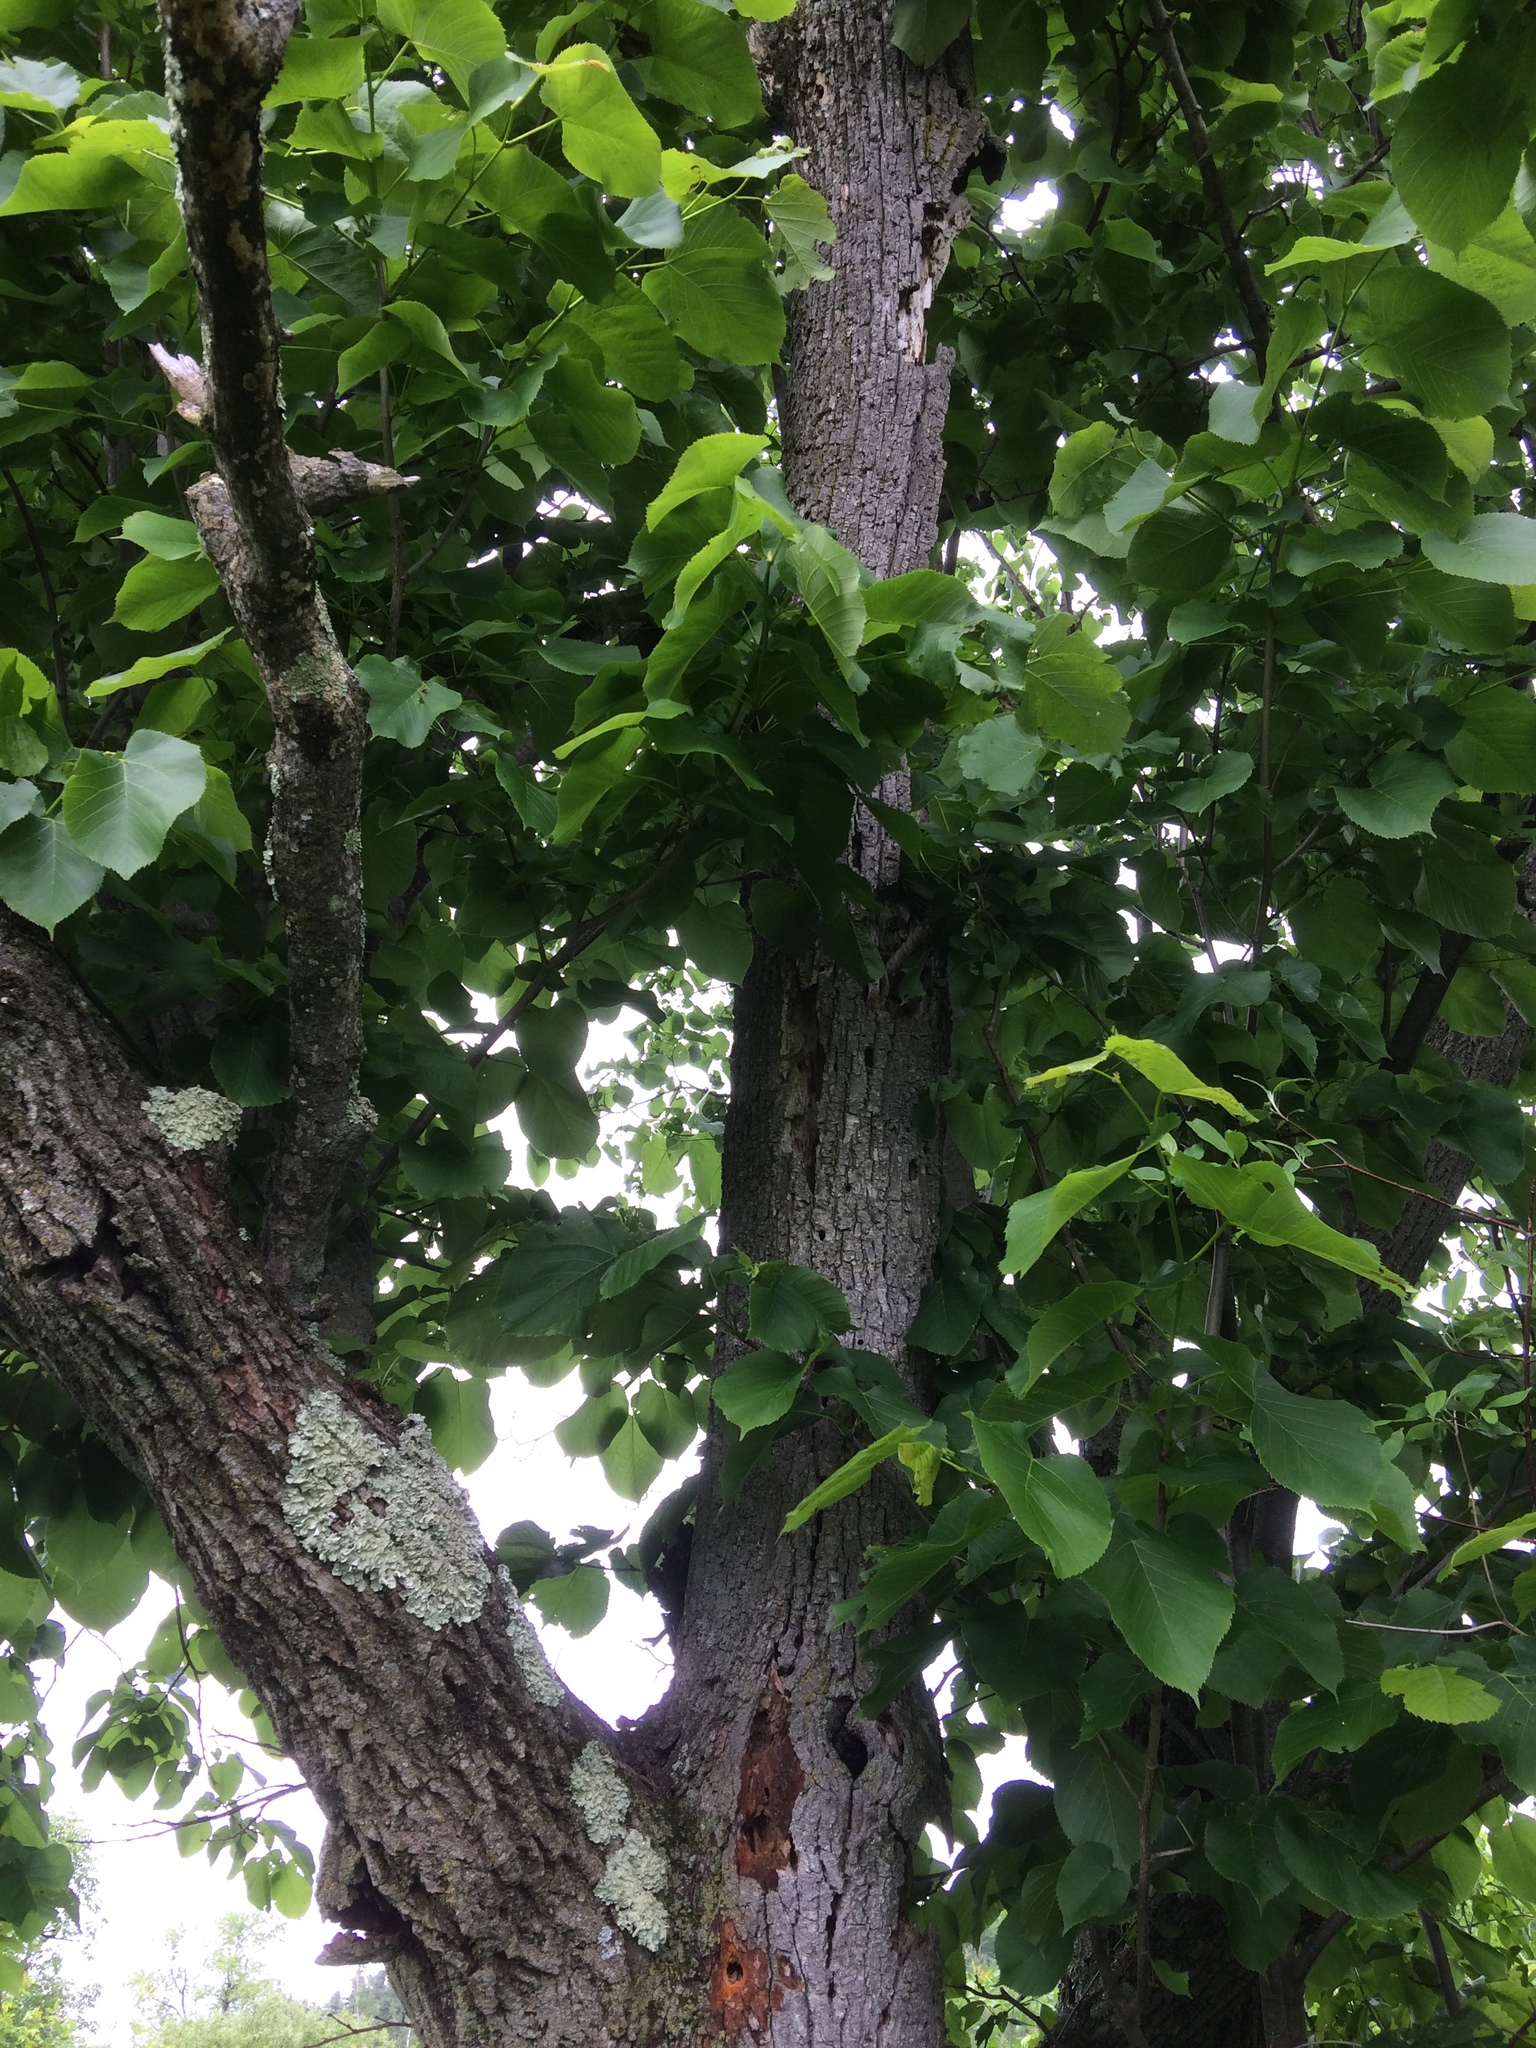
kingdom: Plantae
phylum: Tracheophyta
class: Magnoliopsida
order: Malvales
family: Malvaceae
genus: Tilia
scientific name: Tilia americana
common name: Basswood
